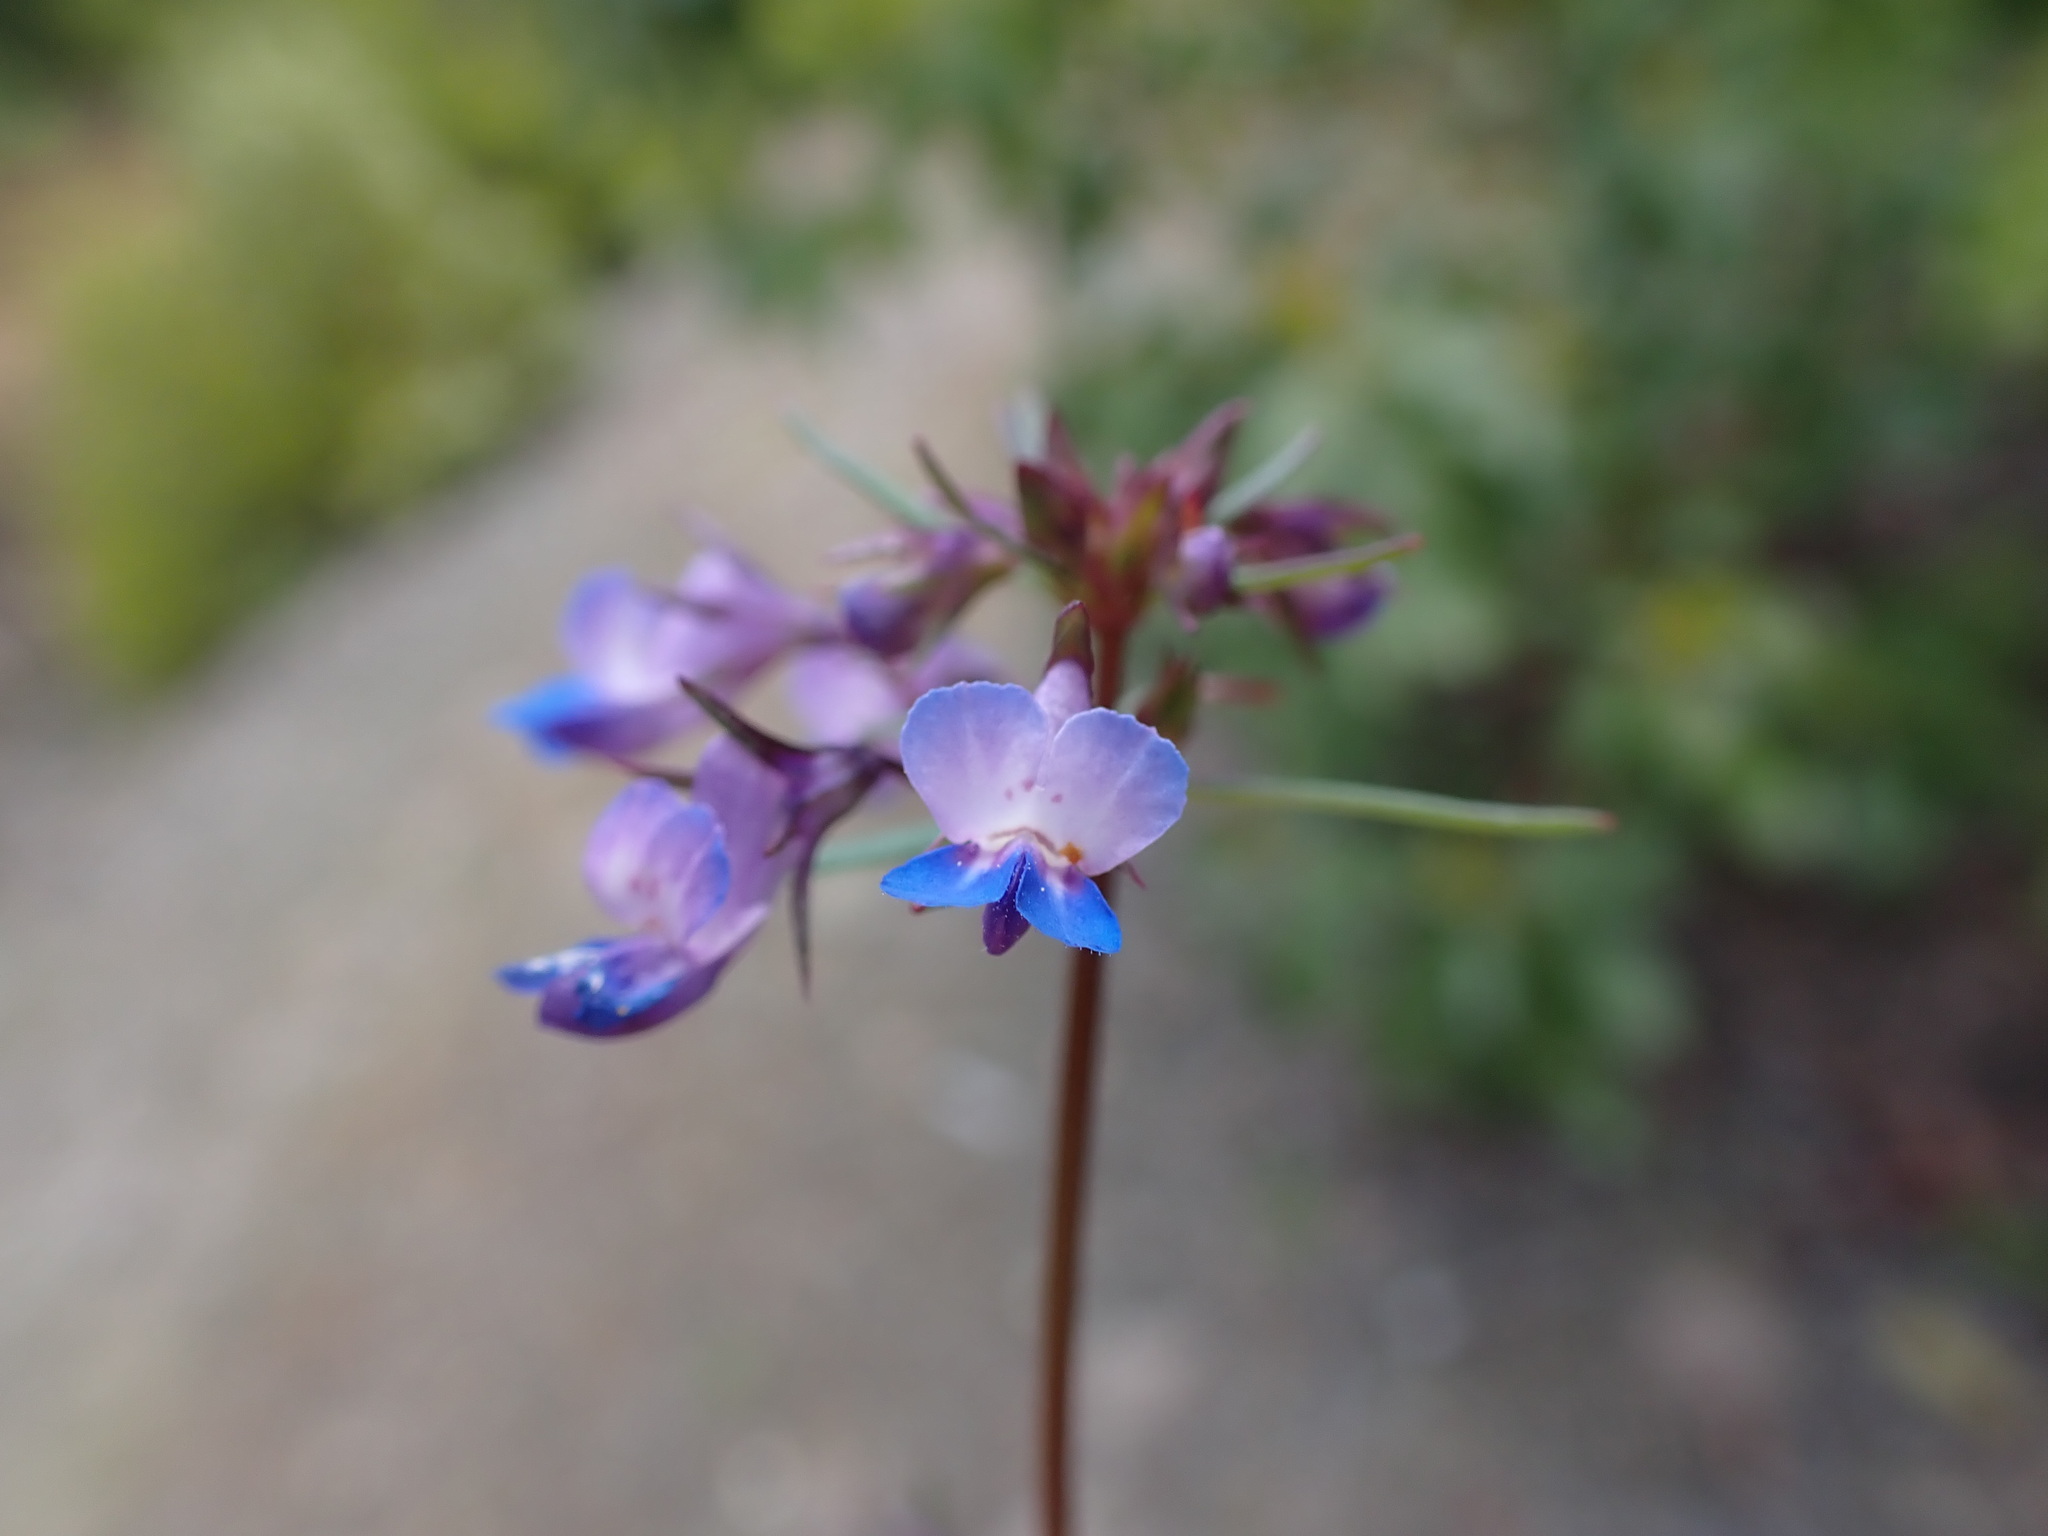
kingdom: Plantae
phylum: Tracheophyta
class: Magnoliopsida
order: Lamiales
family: Plantaginaceae
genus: Collinsia
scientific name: Collinsia grandiflora
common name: Large-flower blue-eyed-mary
